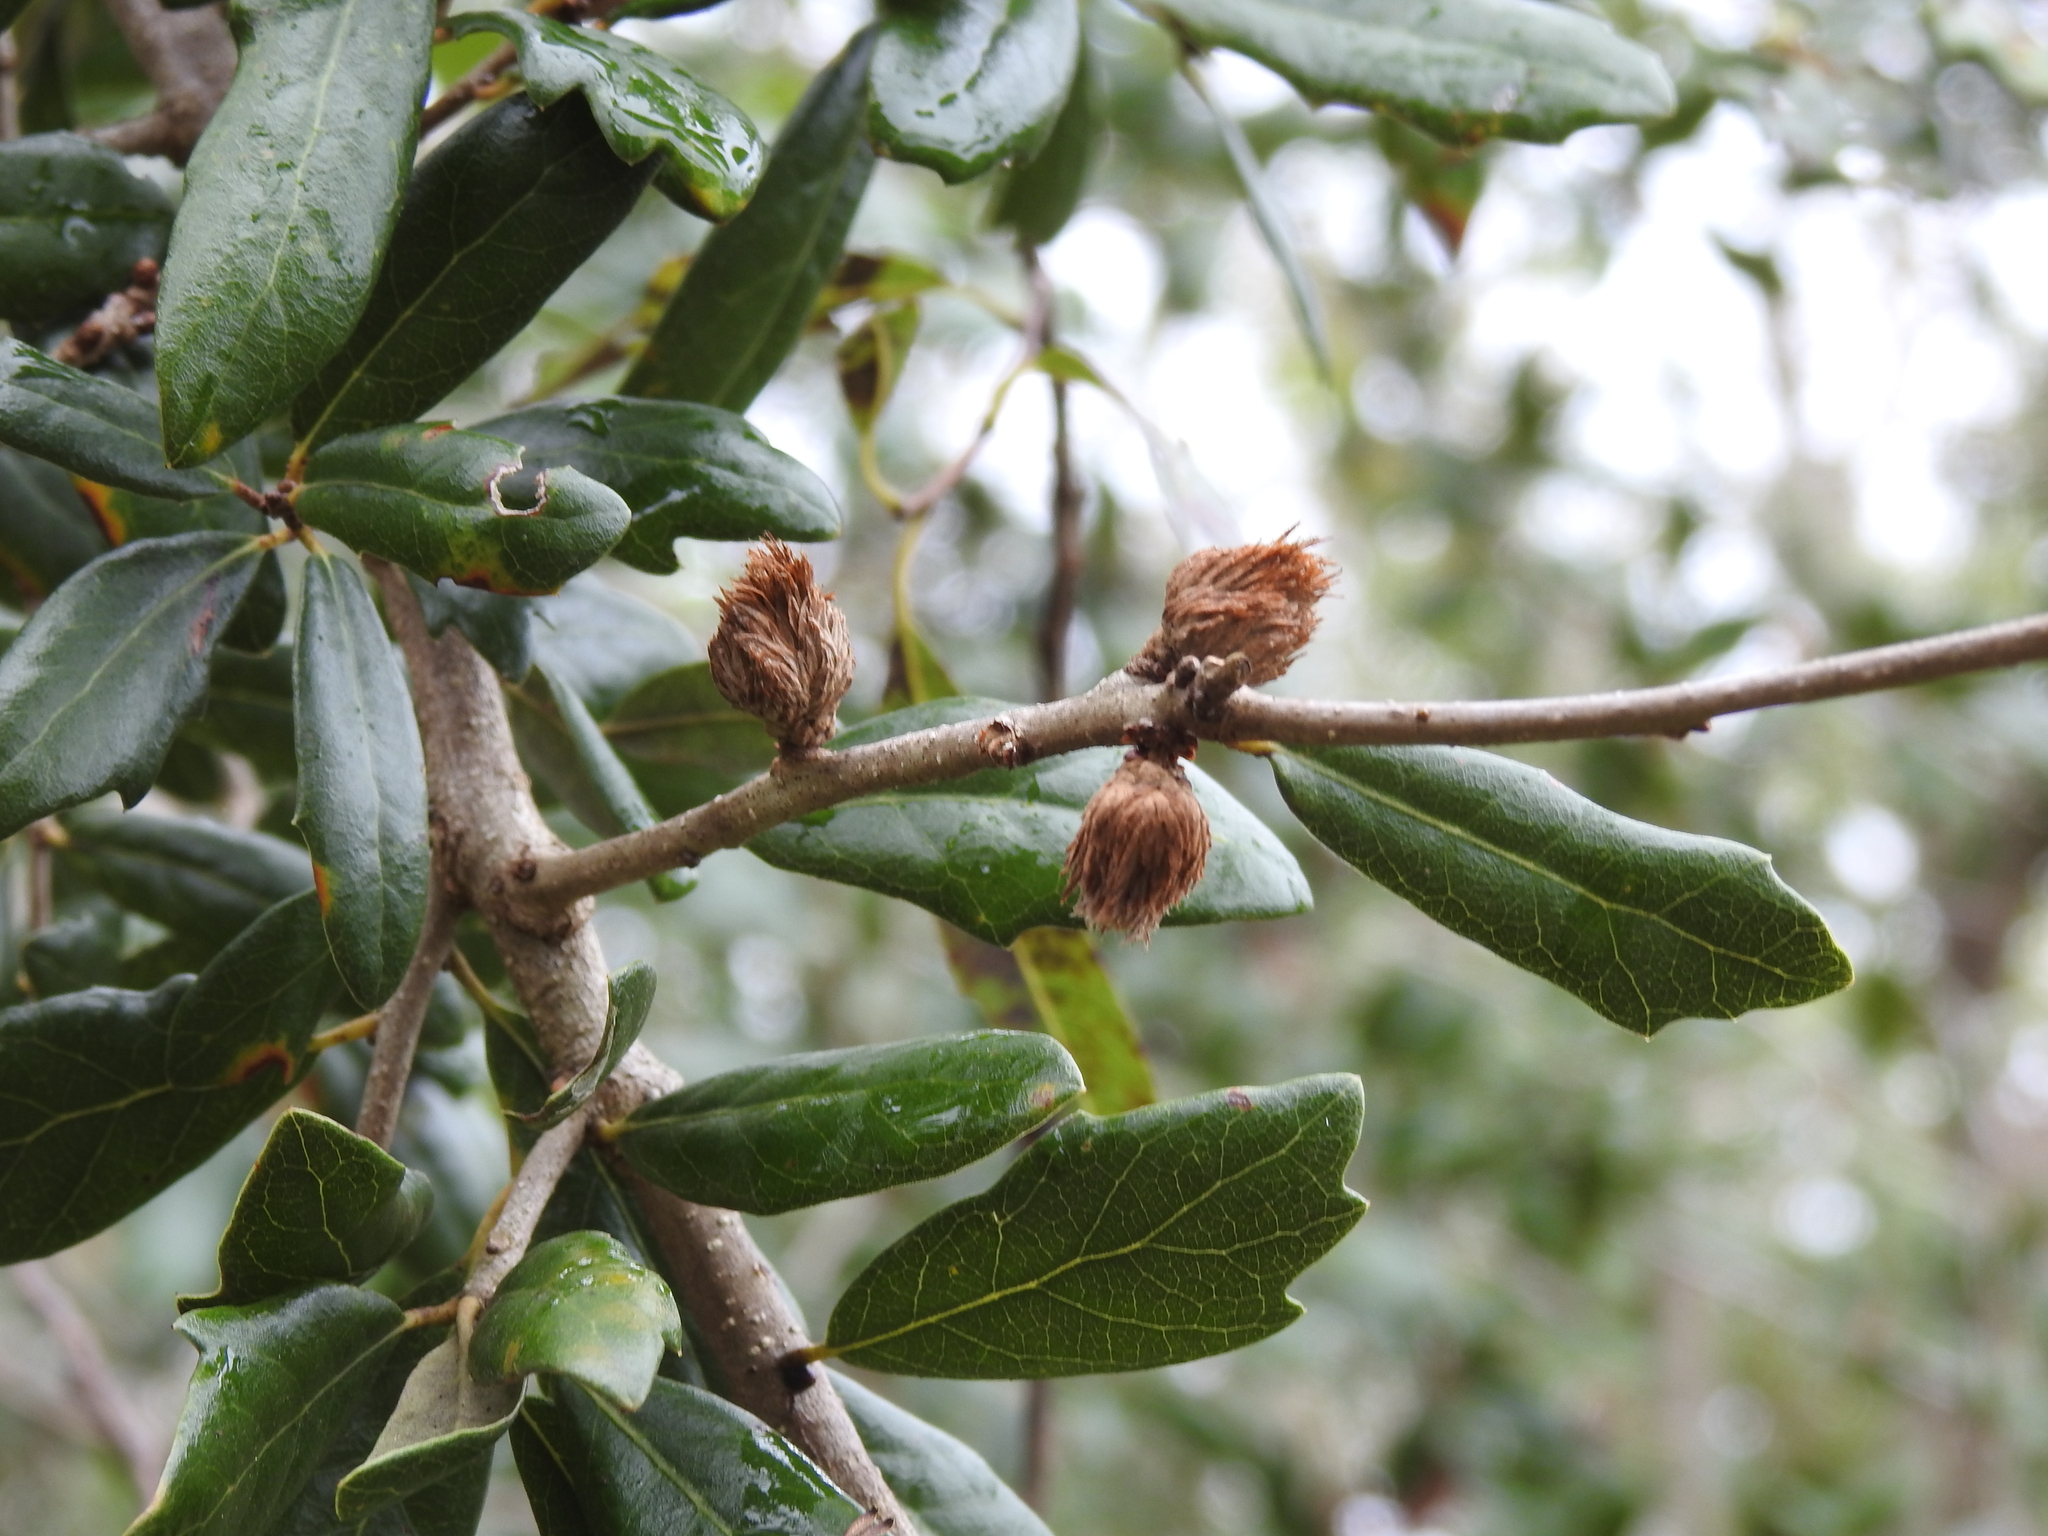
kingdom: Animalia
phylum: Arthropoda
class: Insecta
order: Hymenoptera
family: Cynipidae
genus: Andricus
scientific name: Andricus quercusfoliatus
